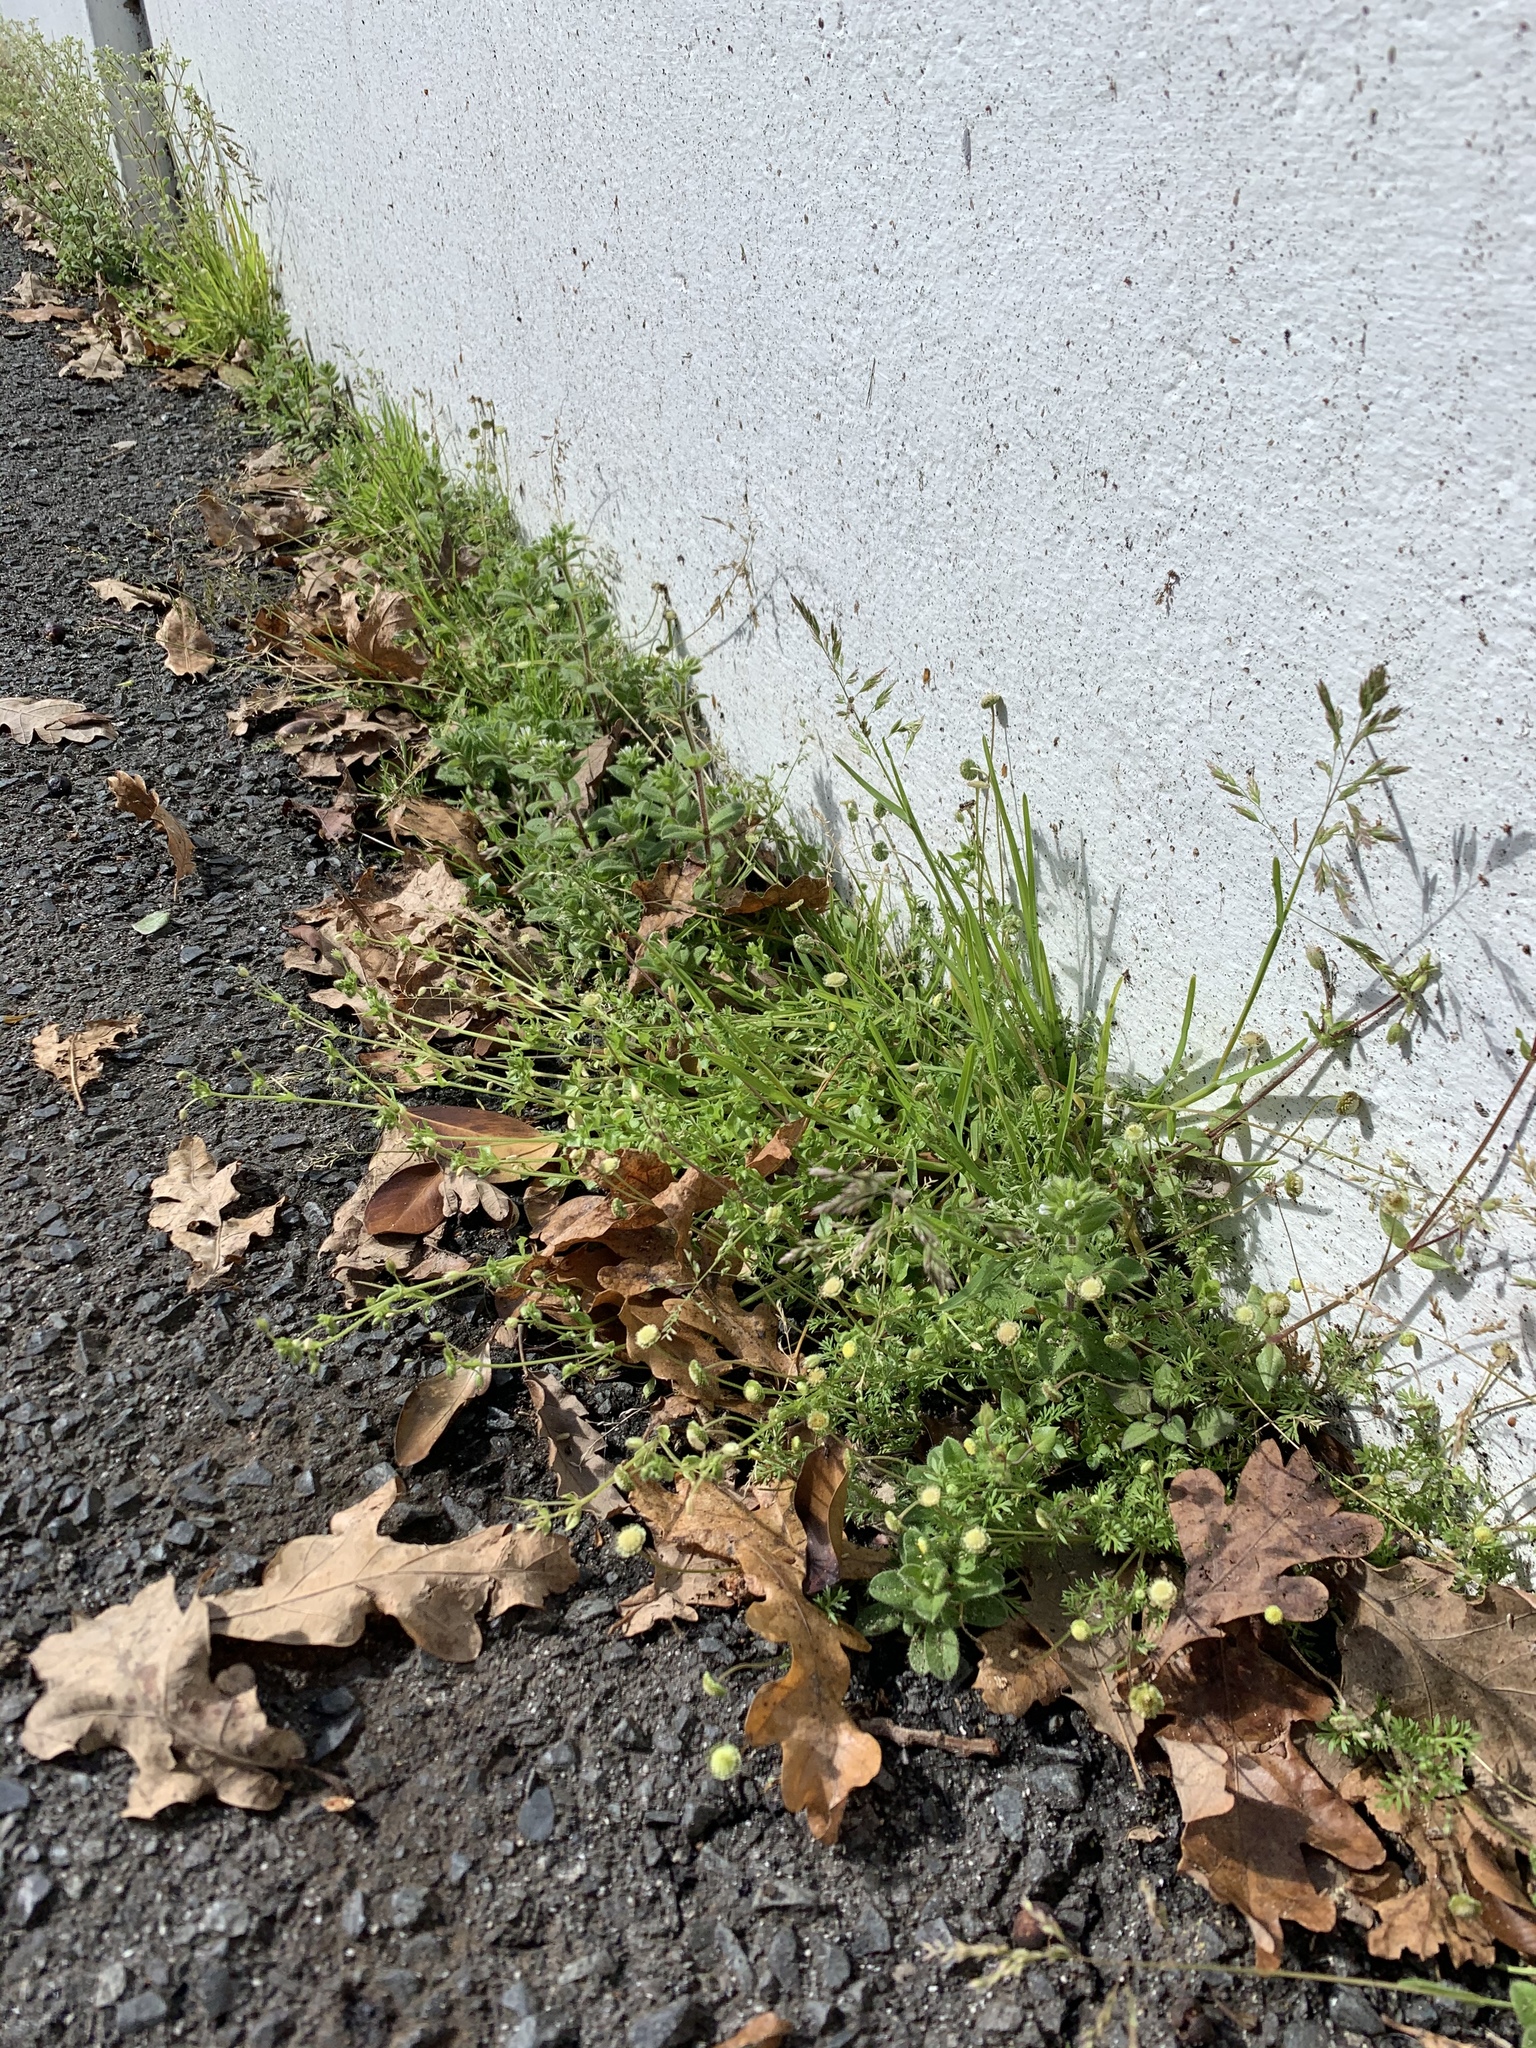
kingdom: Plantae
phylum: Tracheophyta
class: Magnoliopsida
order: Asterales
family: Asteraceae
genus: Cotula
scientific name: Cotula australis
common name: Australian waterbuttons
